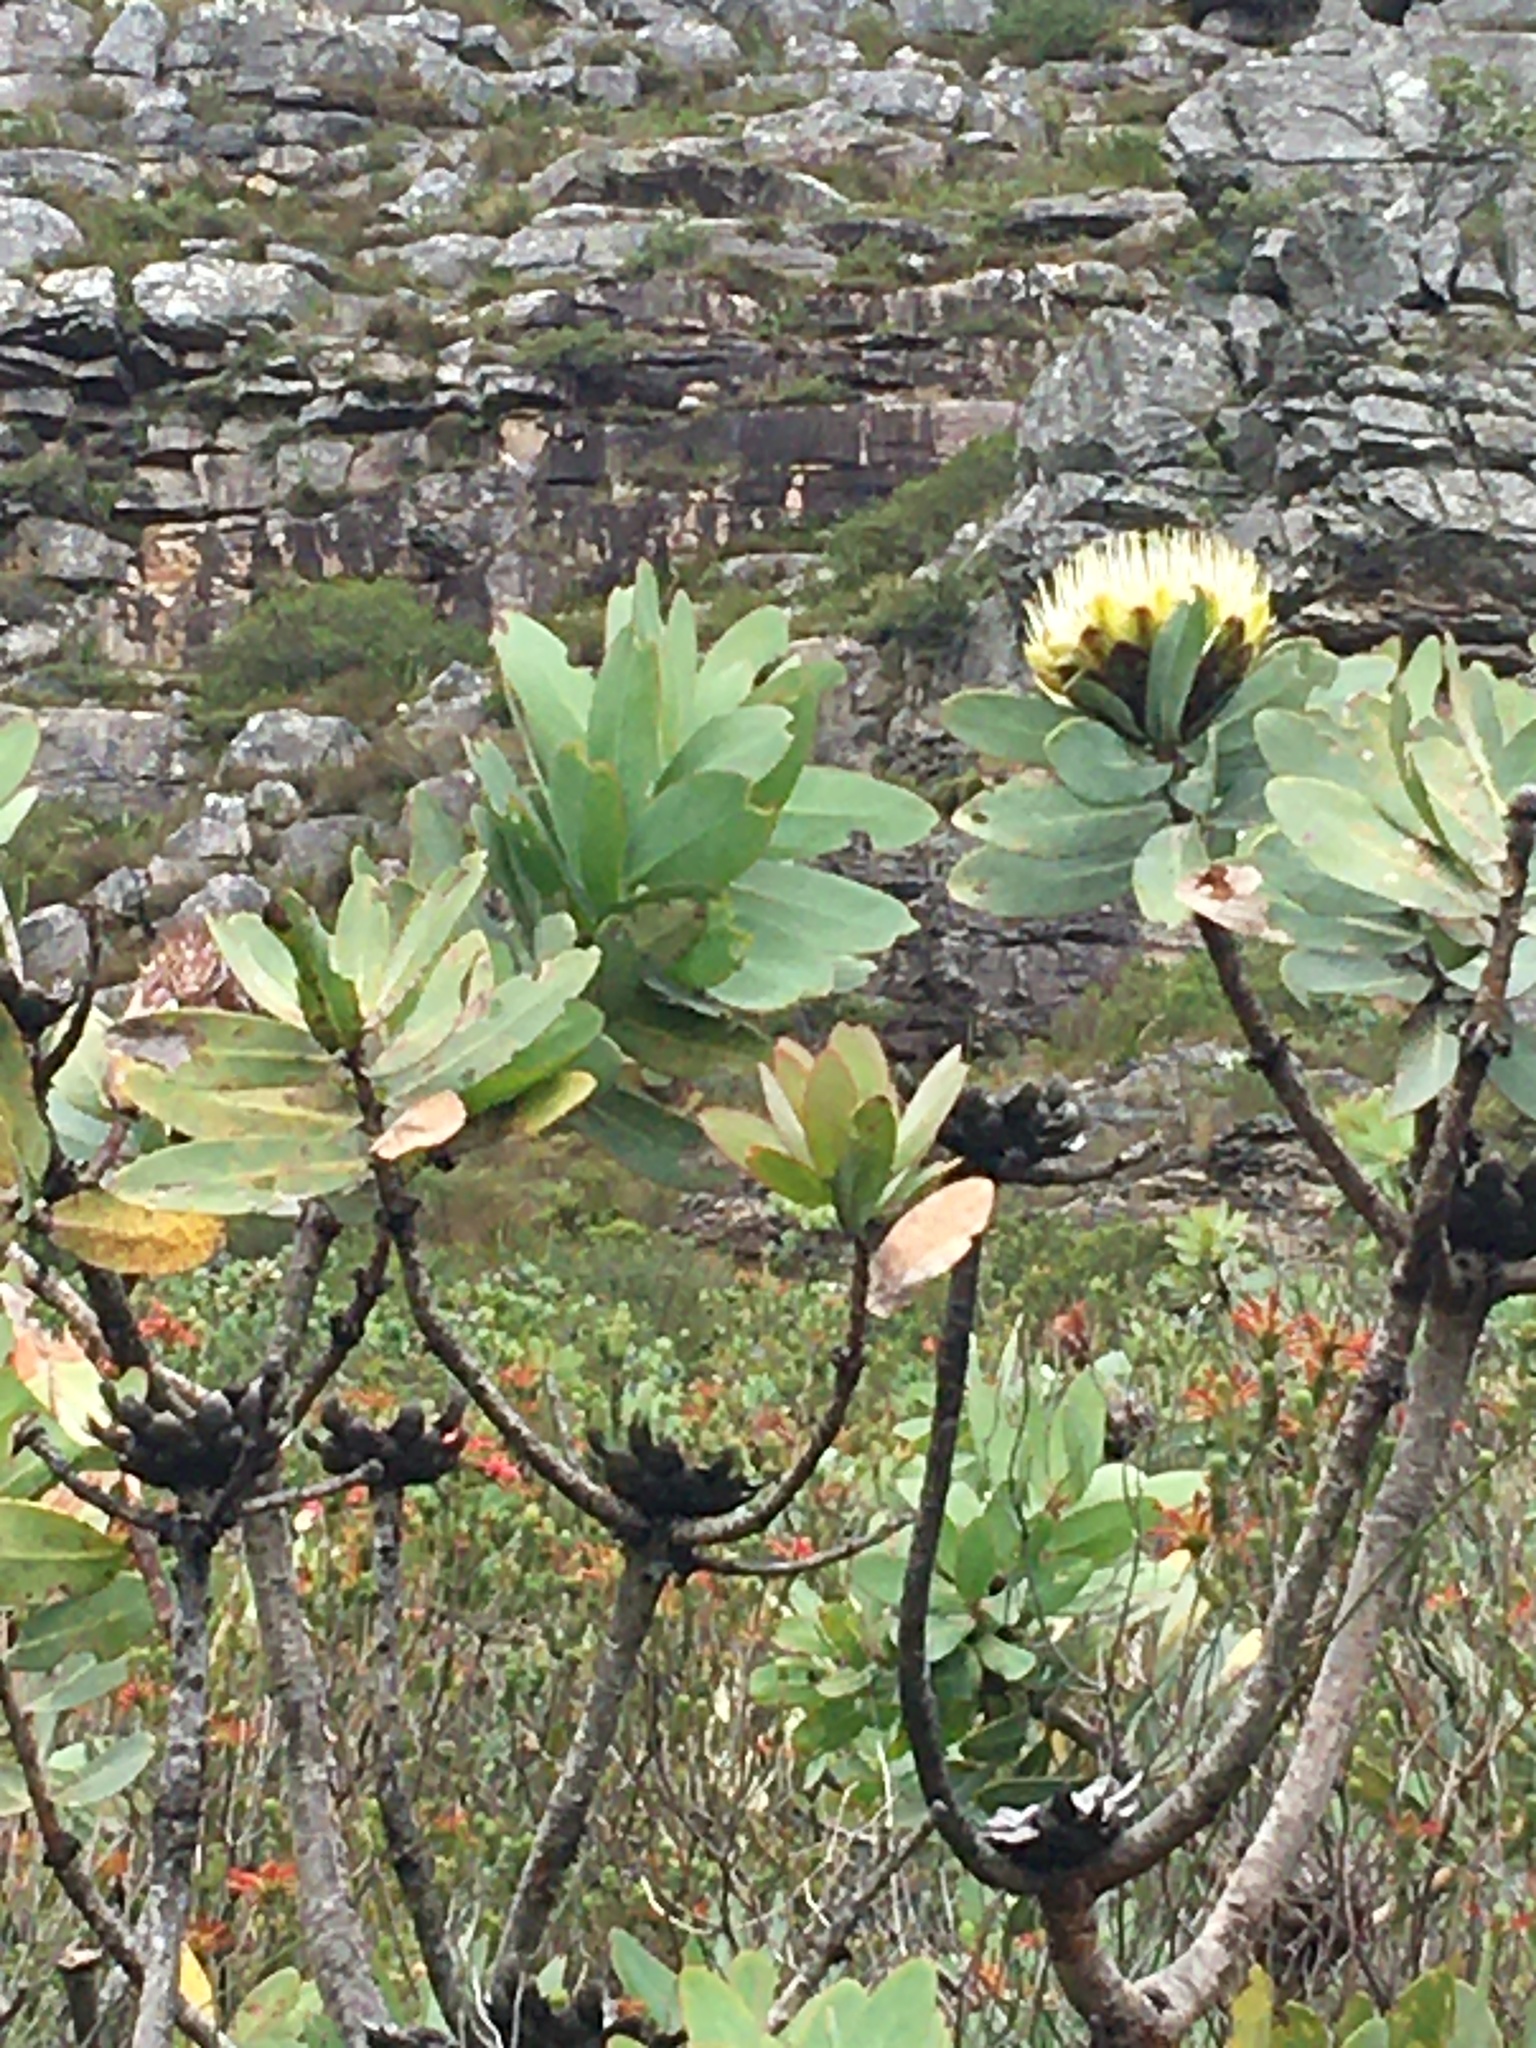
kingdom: Plantae
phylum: Tracheophyta
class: Magnoliopsida
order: Proteales
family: Proteaceae
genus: Protea
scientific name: Protea nitida
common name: Tree protea
